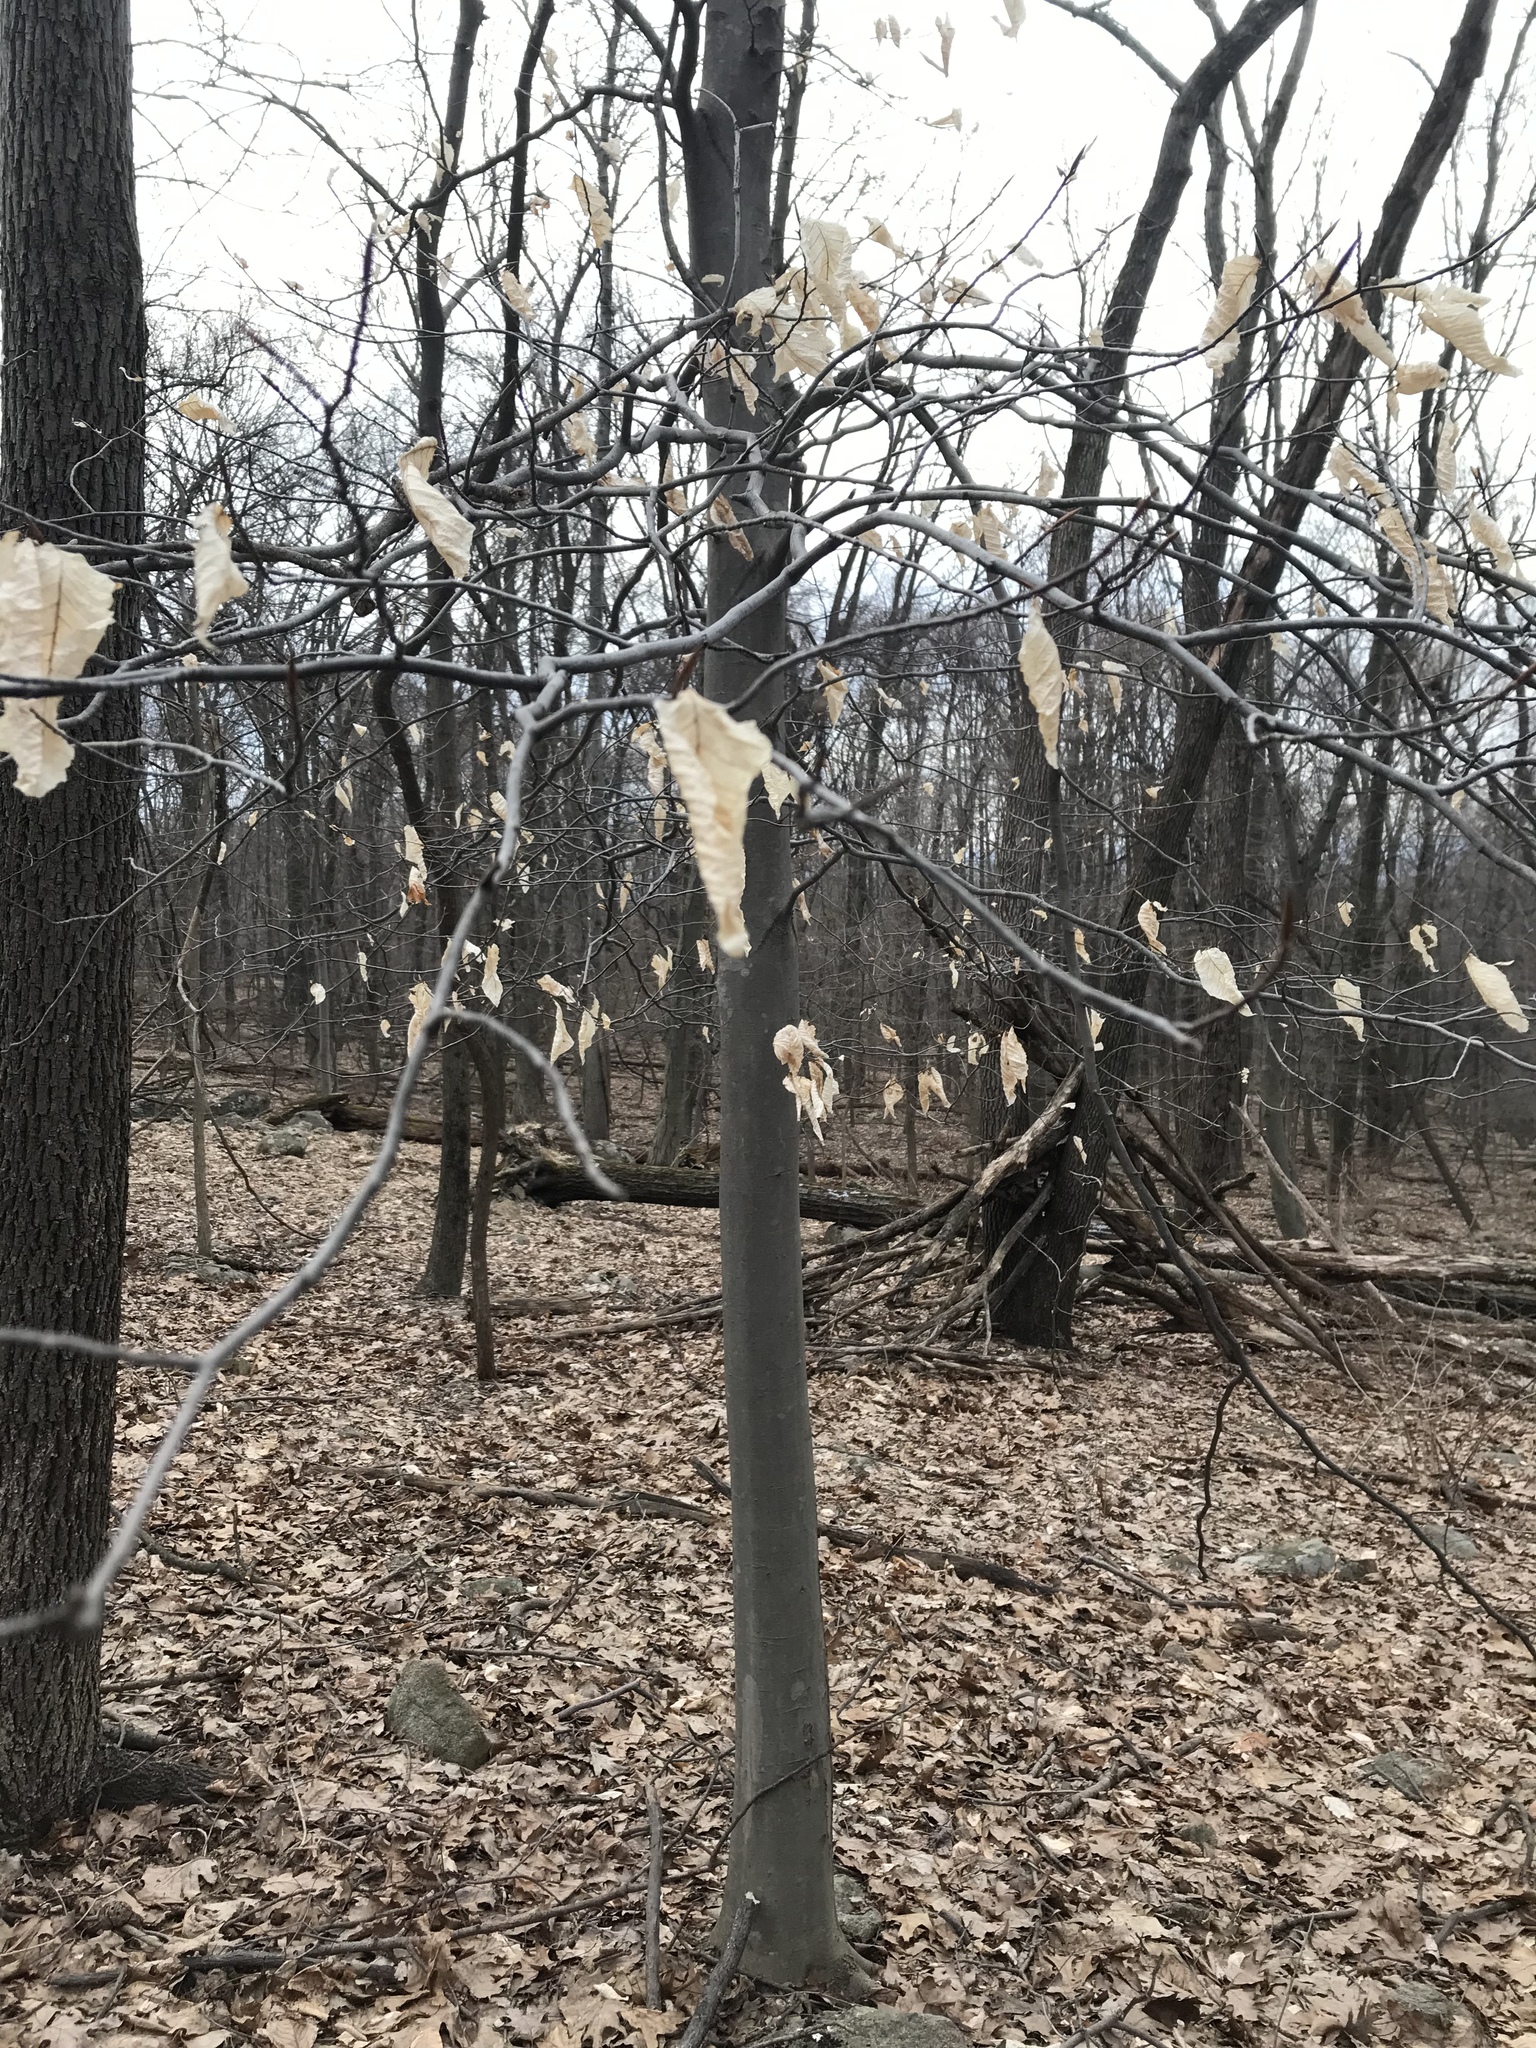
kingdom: Plantae
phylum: Tracheophyta
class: Magnoliopsida
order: Fagales
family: Fagaceae
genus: Fagus
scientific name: Fagus grandifolia
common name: American beech
